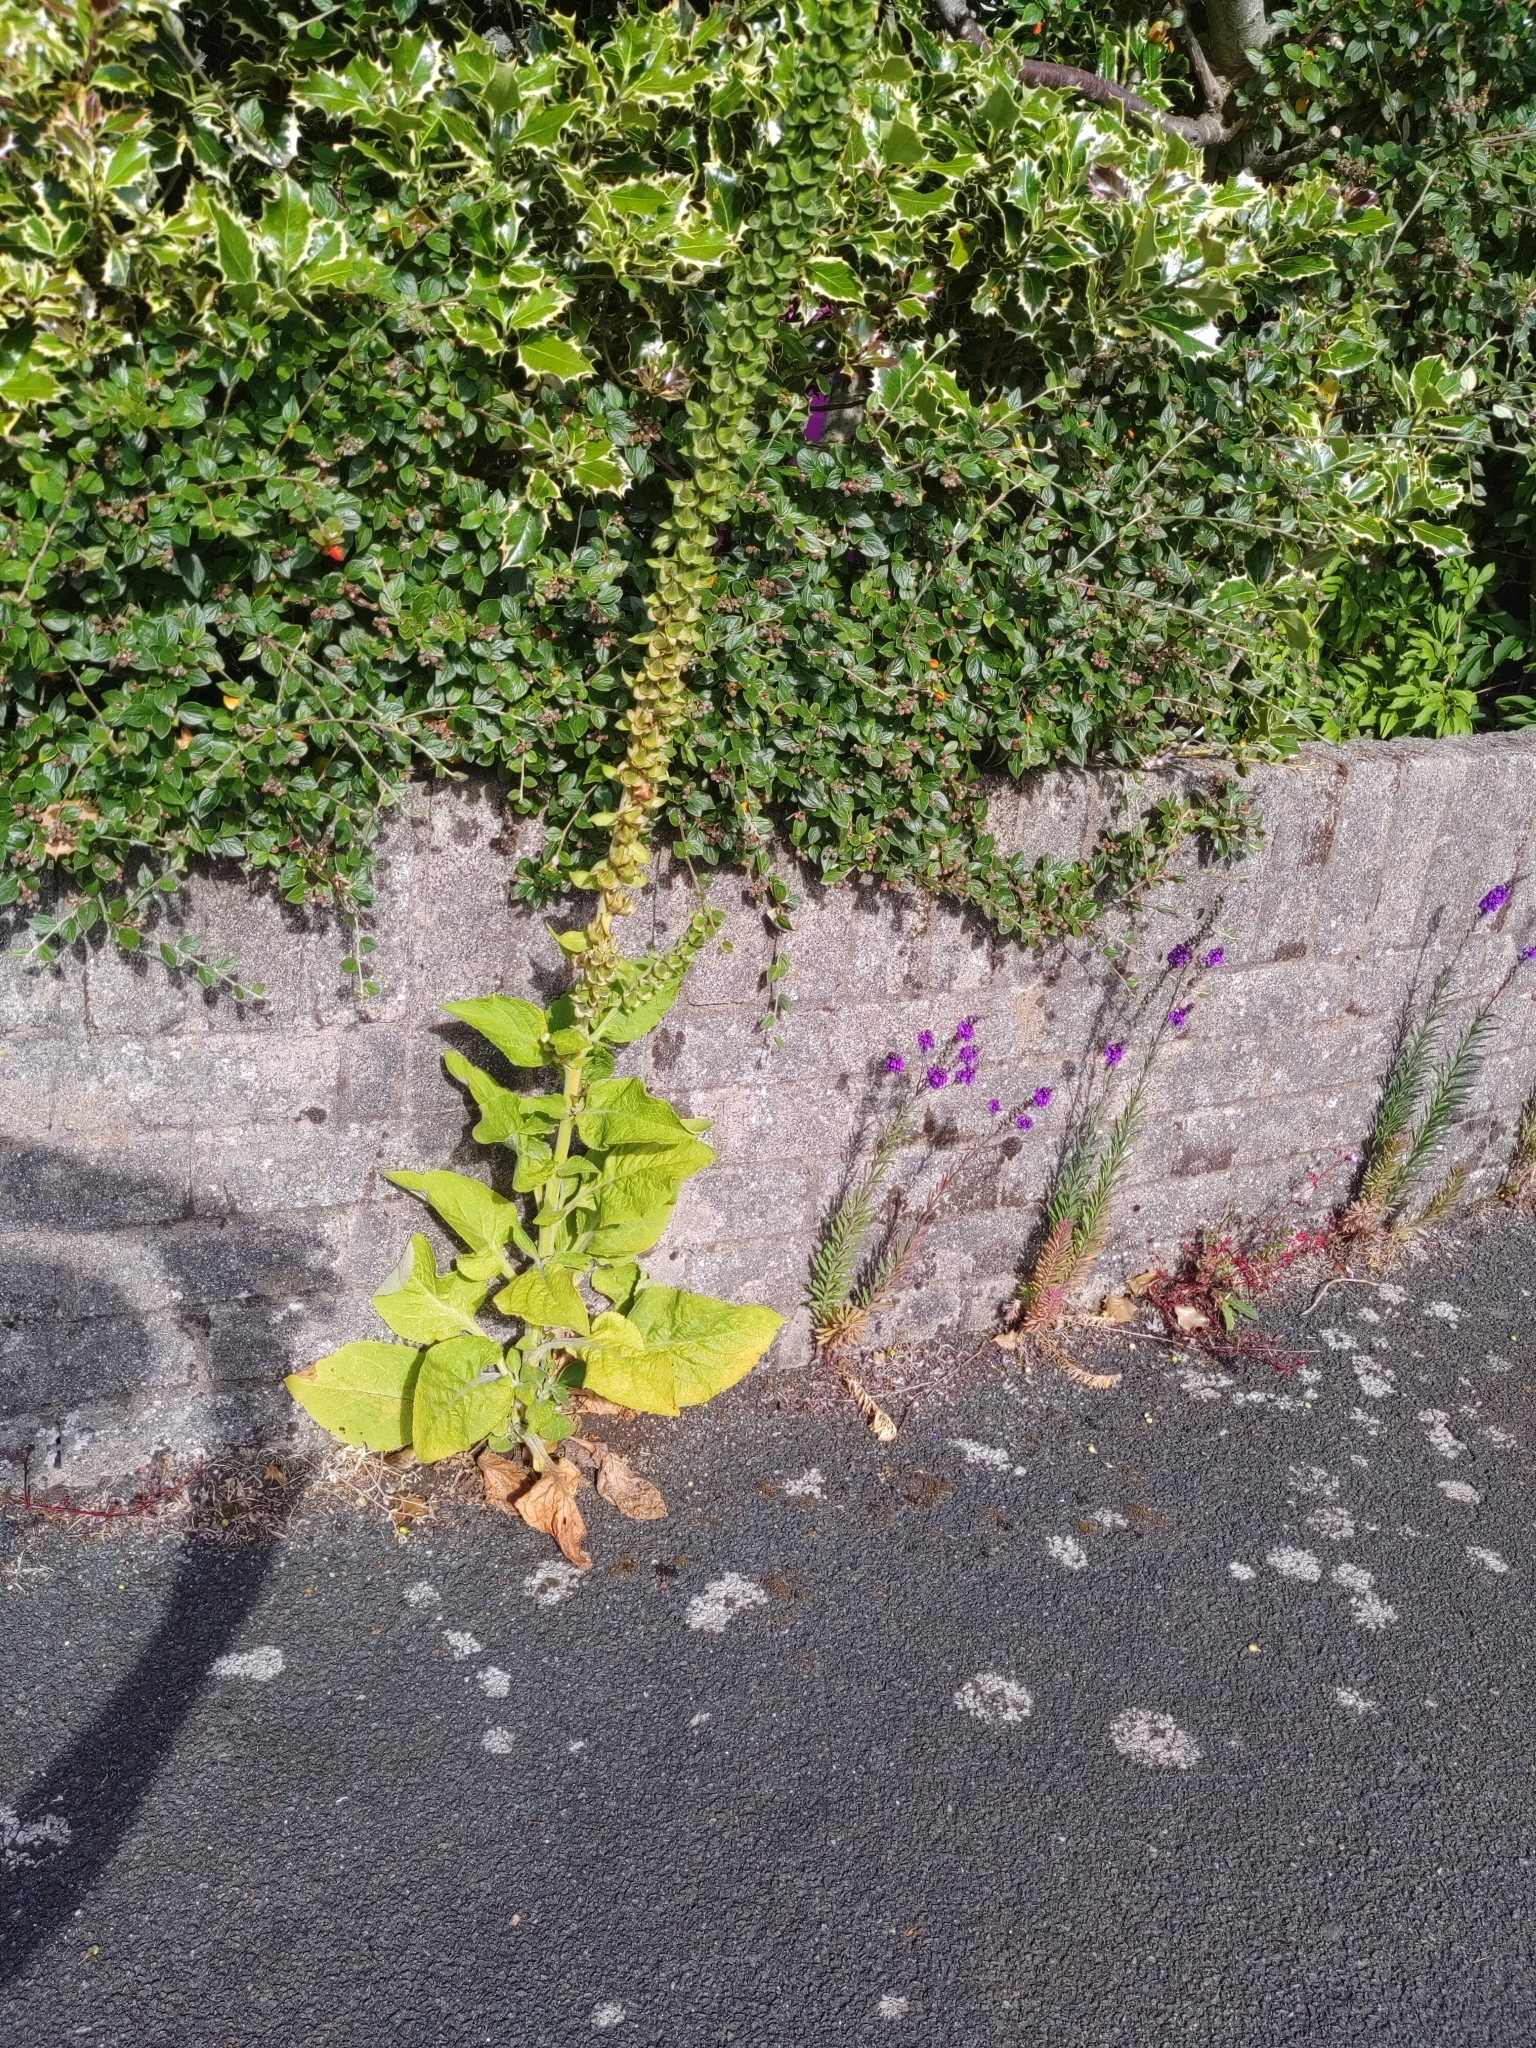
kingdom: Plantae
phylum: Tracheophyta
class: Magnoliopsida
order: Lamiales
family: Plantaginaceae
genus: Digitalis
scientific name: Digitalis purpurea
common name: Foxglove
